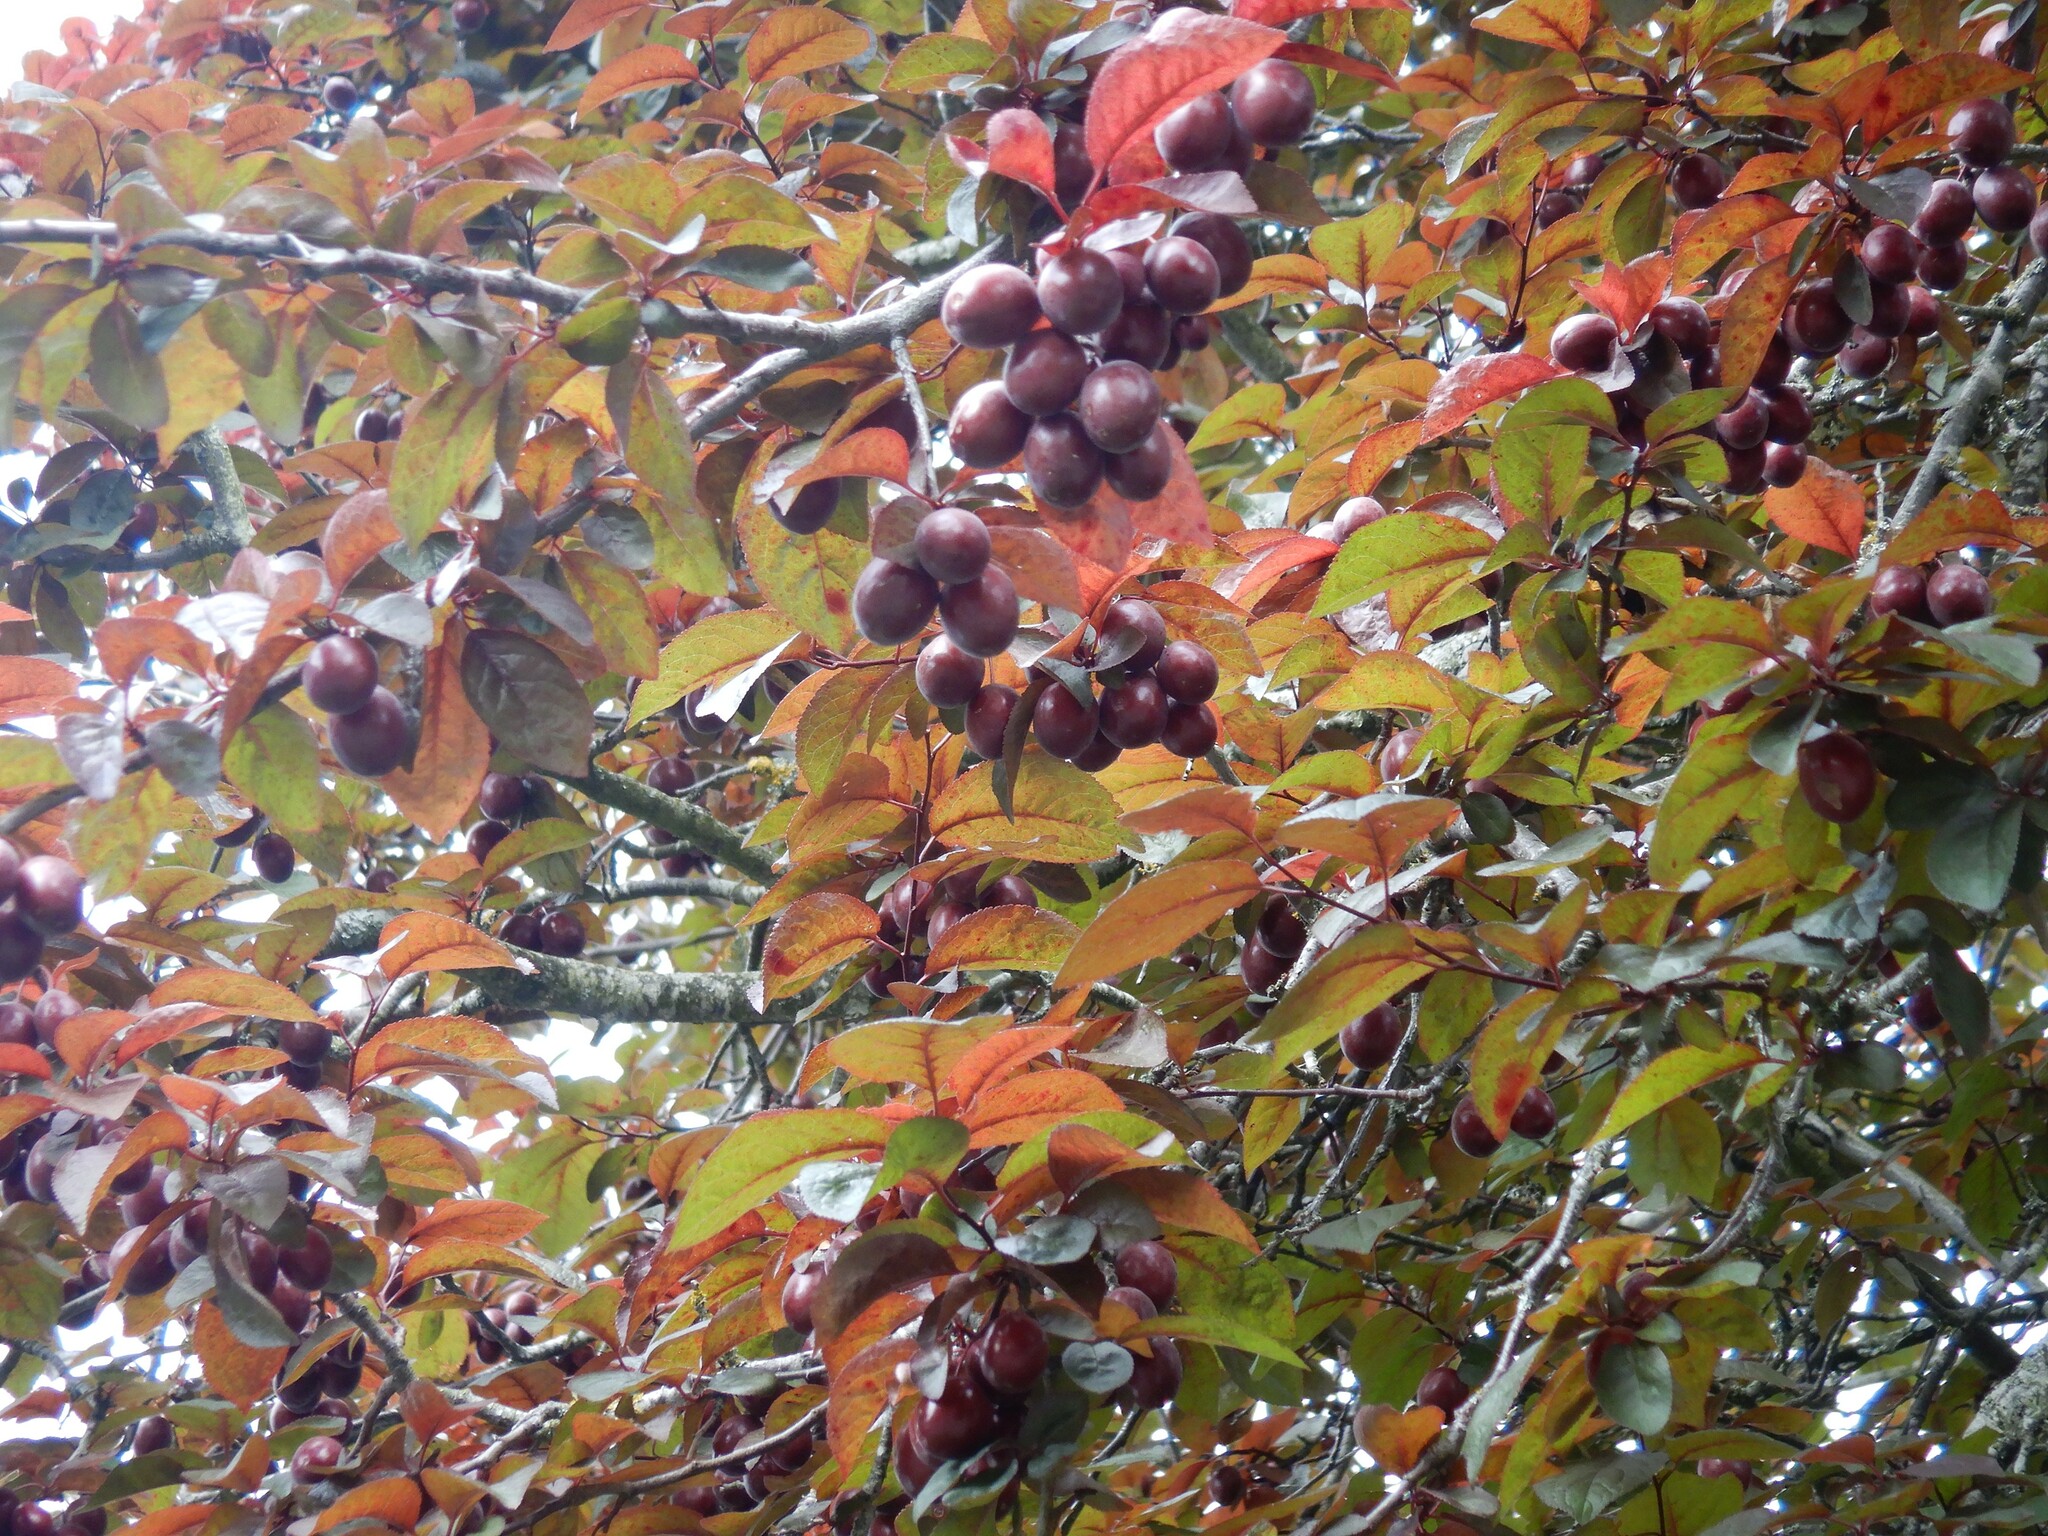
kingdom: Plantae
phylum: Tracheophyta
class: Magnoliopsida
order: Rosales
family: Rosaceae
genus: Prunus
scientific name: Prunus cerasifera
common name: Cherry plum
